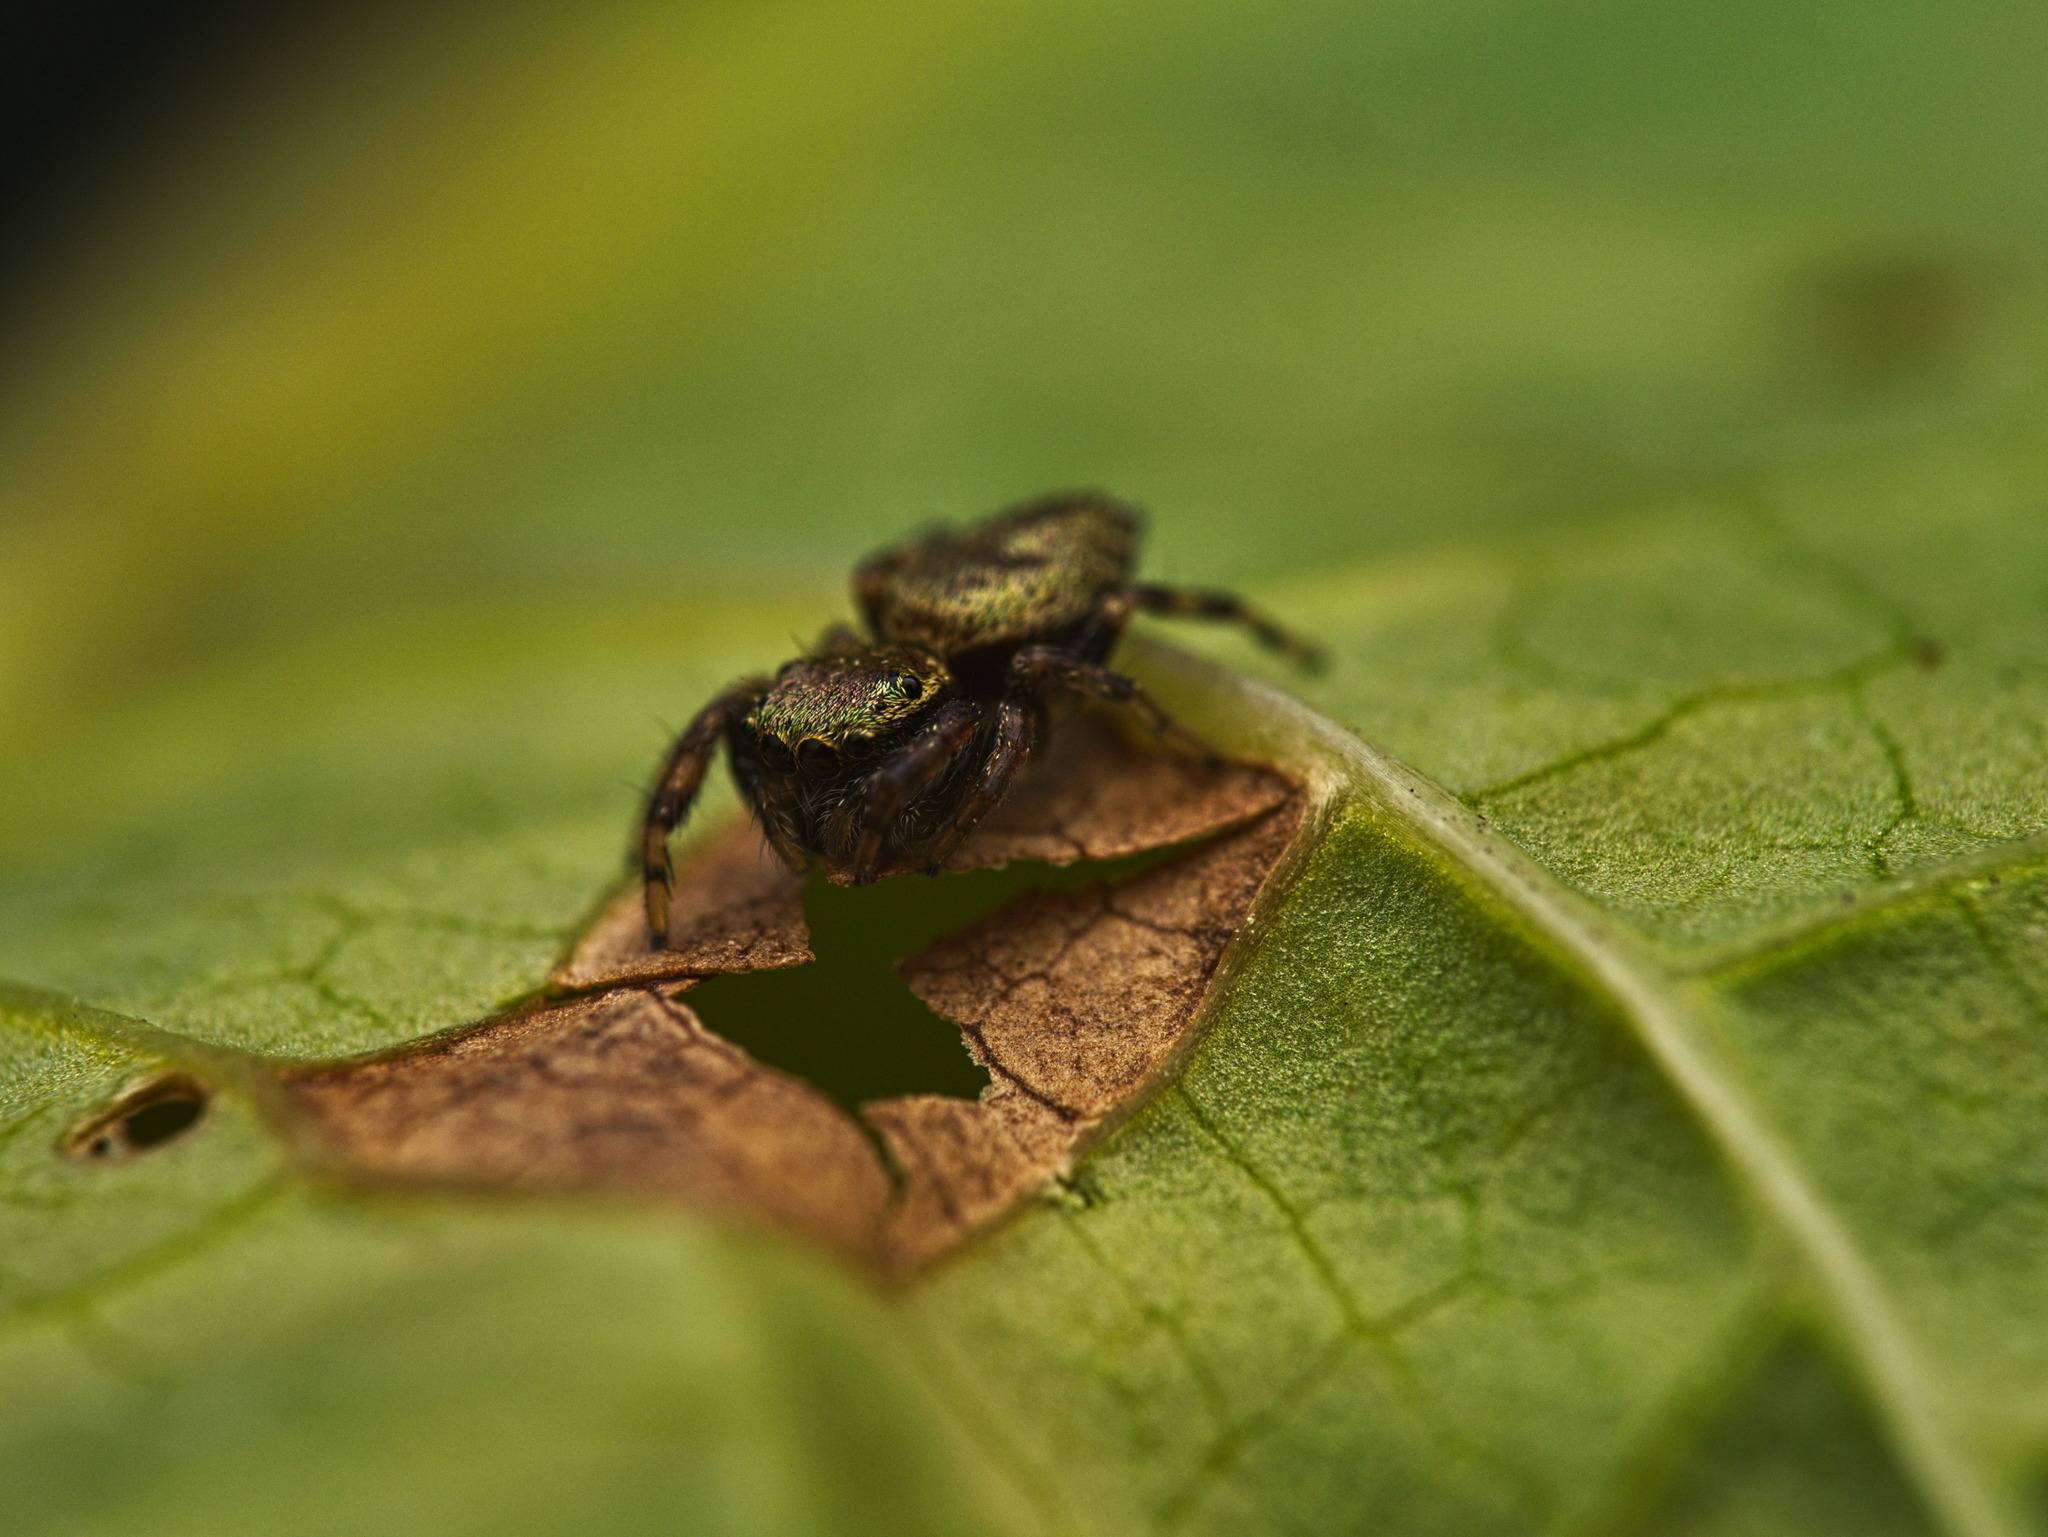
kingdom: Animalia
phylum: Arthropoda
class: Arachnida
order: Araneae
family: Salticidae
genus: Messua
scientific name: Messua limbata
